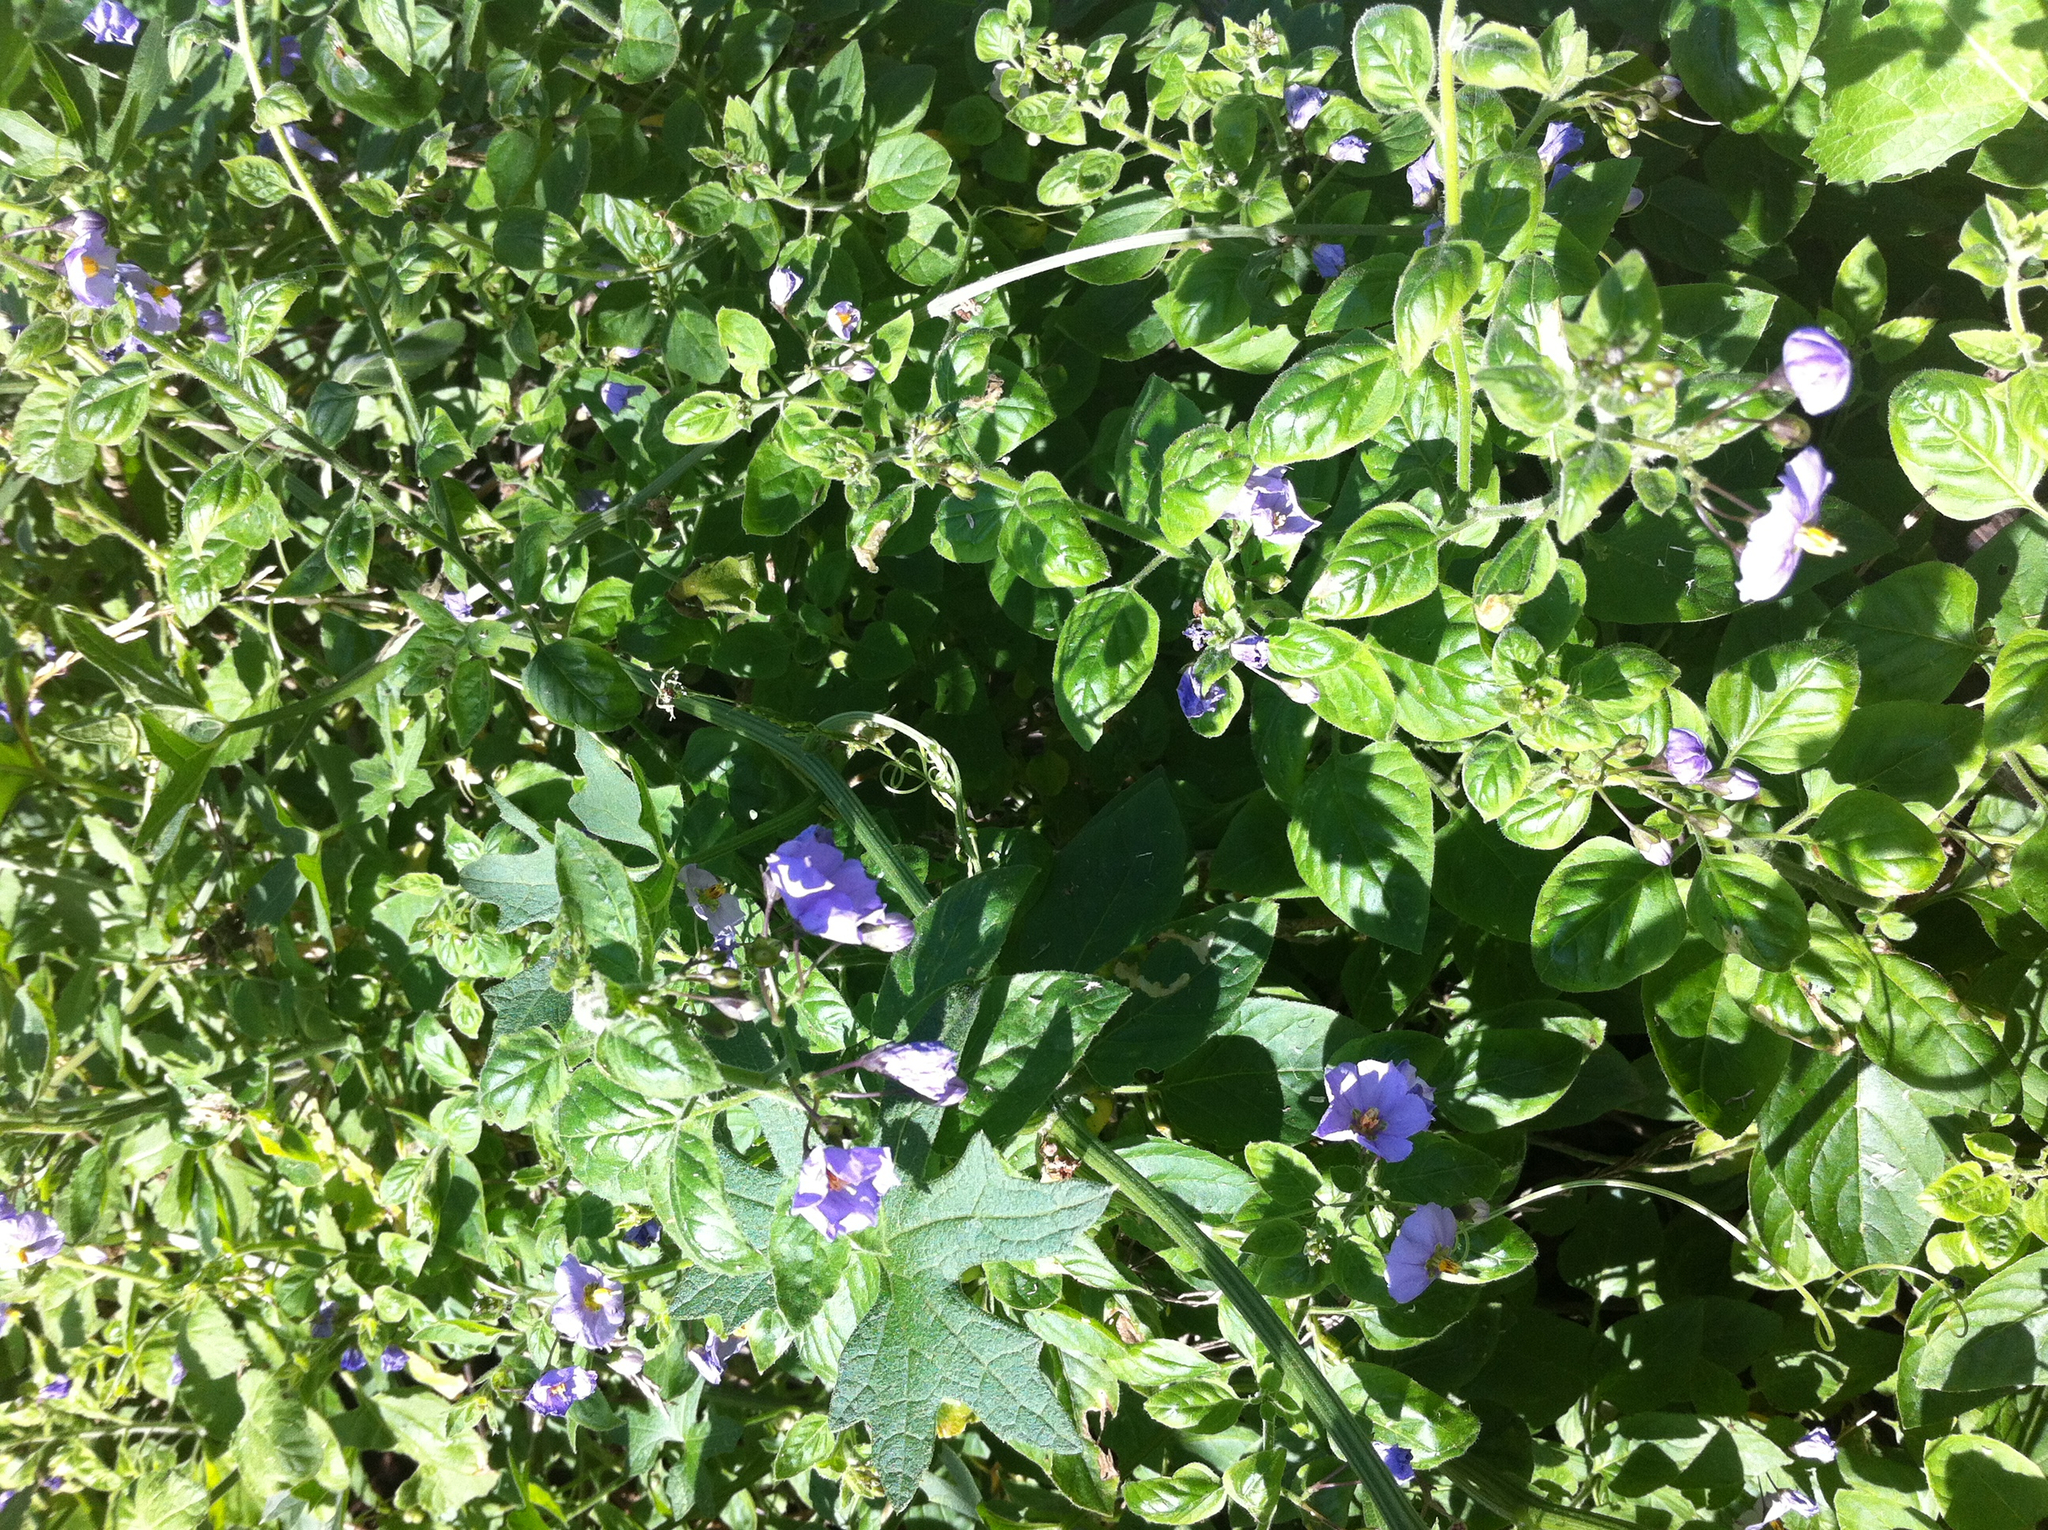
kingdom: Plantae
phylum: Tracheophyta
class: Magnoliopsida
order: Solanales
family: Solanaceae
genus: Solanum
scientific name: Solanum umbelliferum
